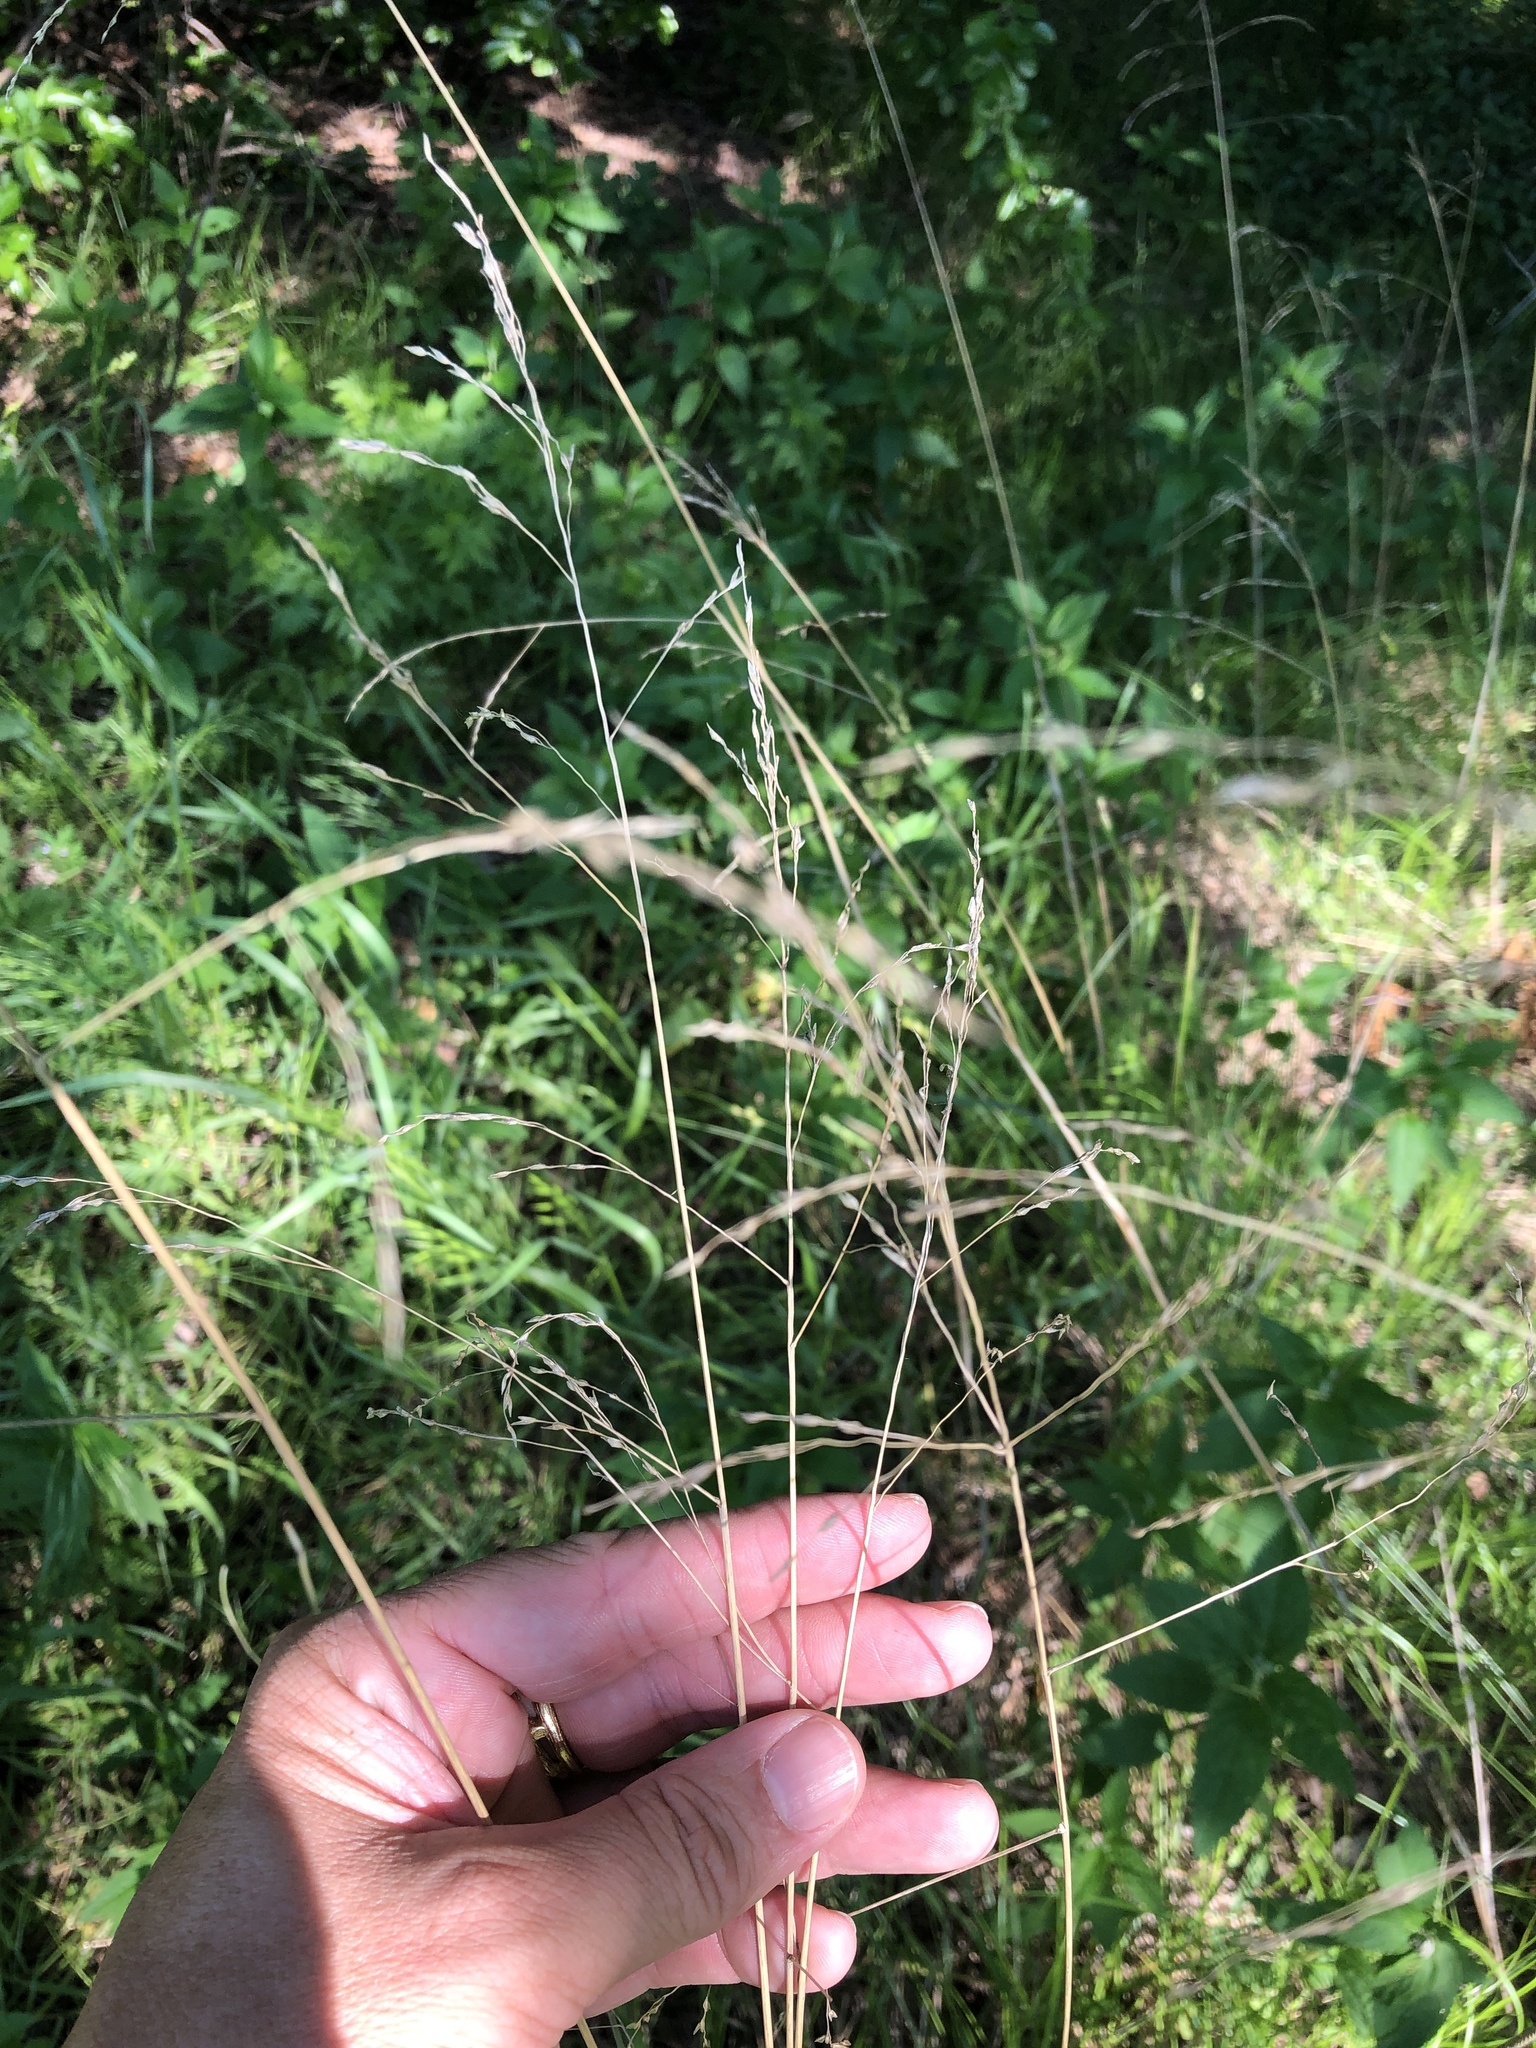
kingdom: Plantae
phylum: Tracheophyta
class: Liliopsida
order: Poales
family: Poaceae
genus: Tridens
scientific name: Tridens flavus
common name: Purpletop
